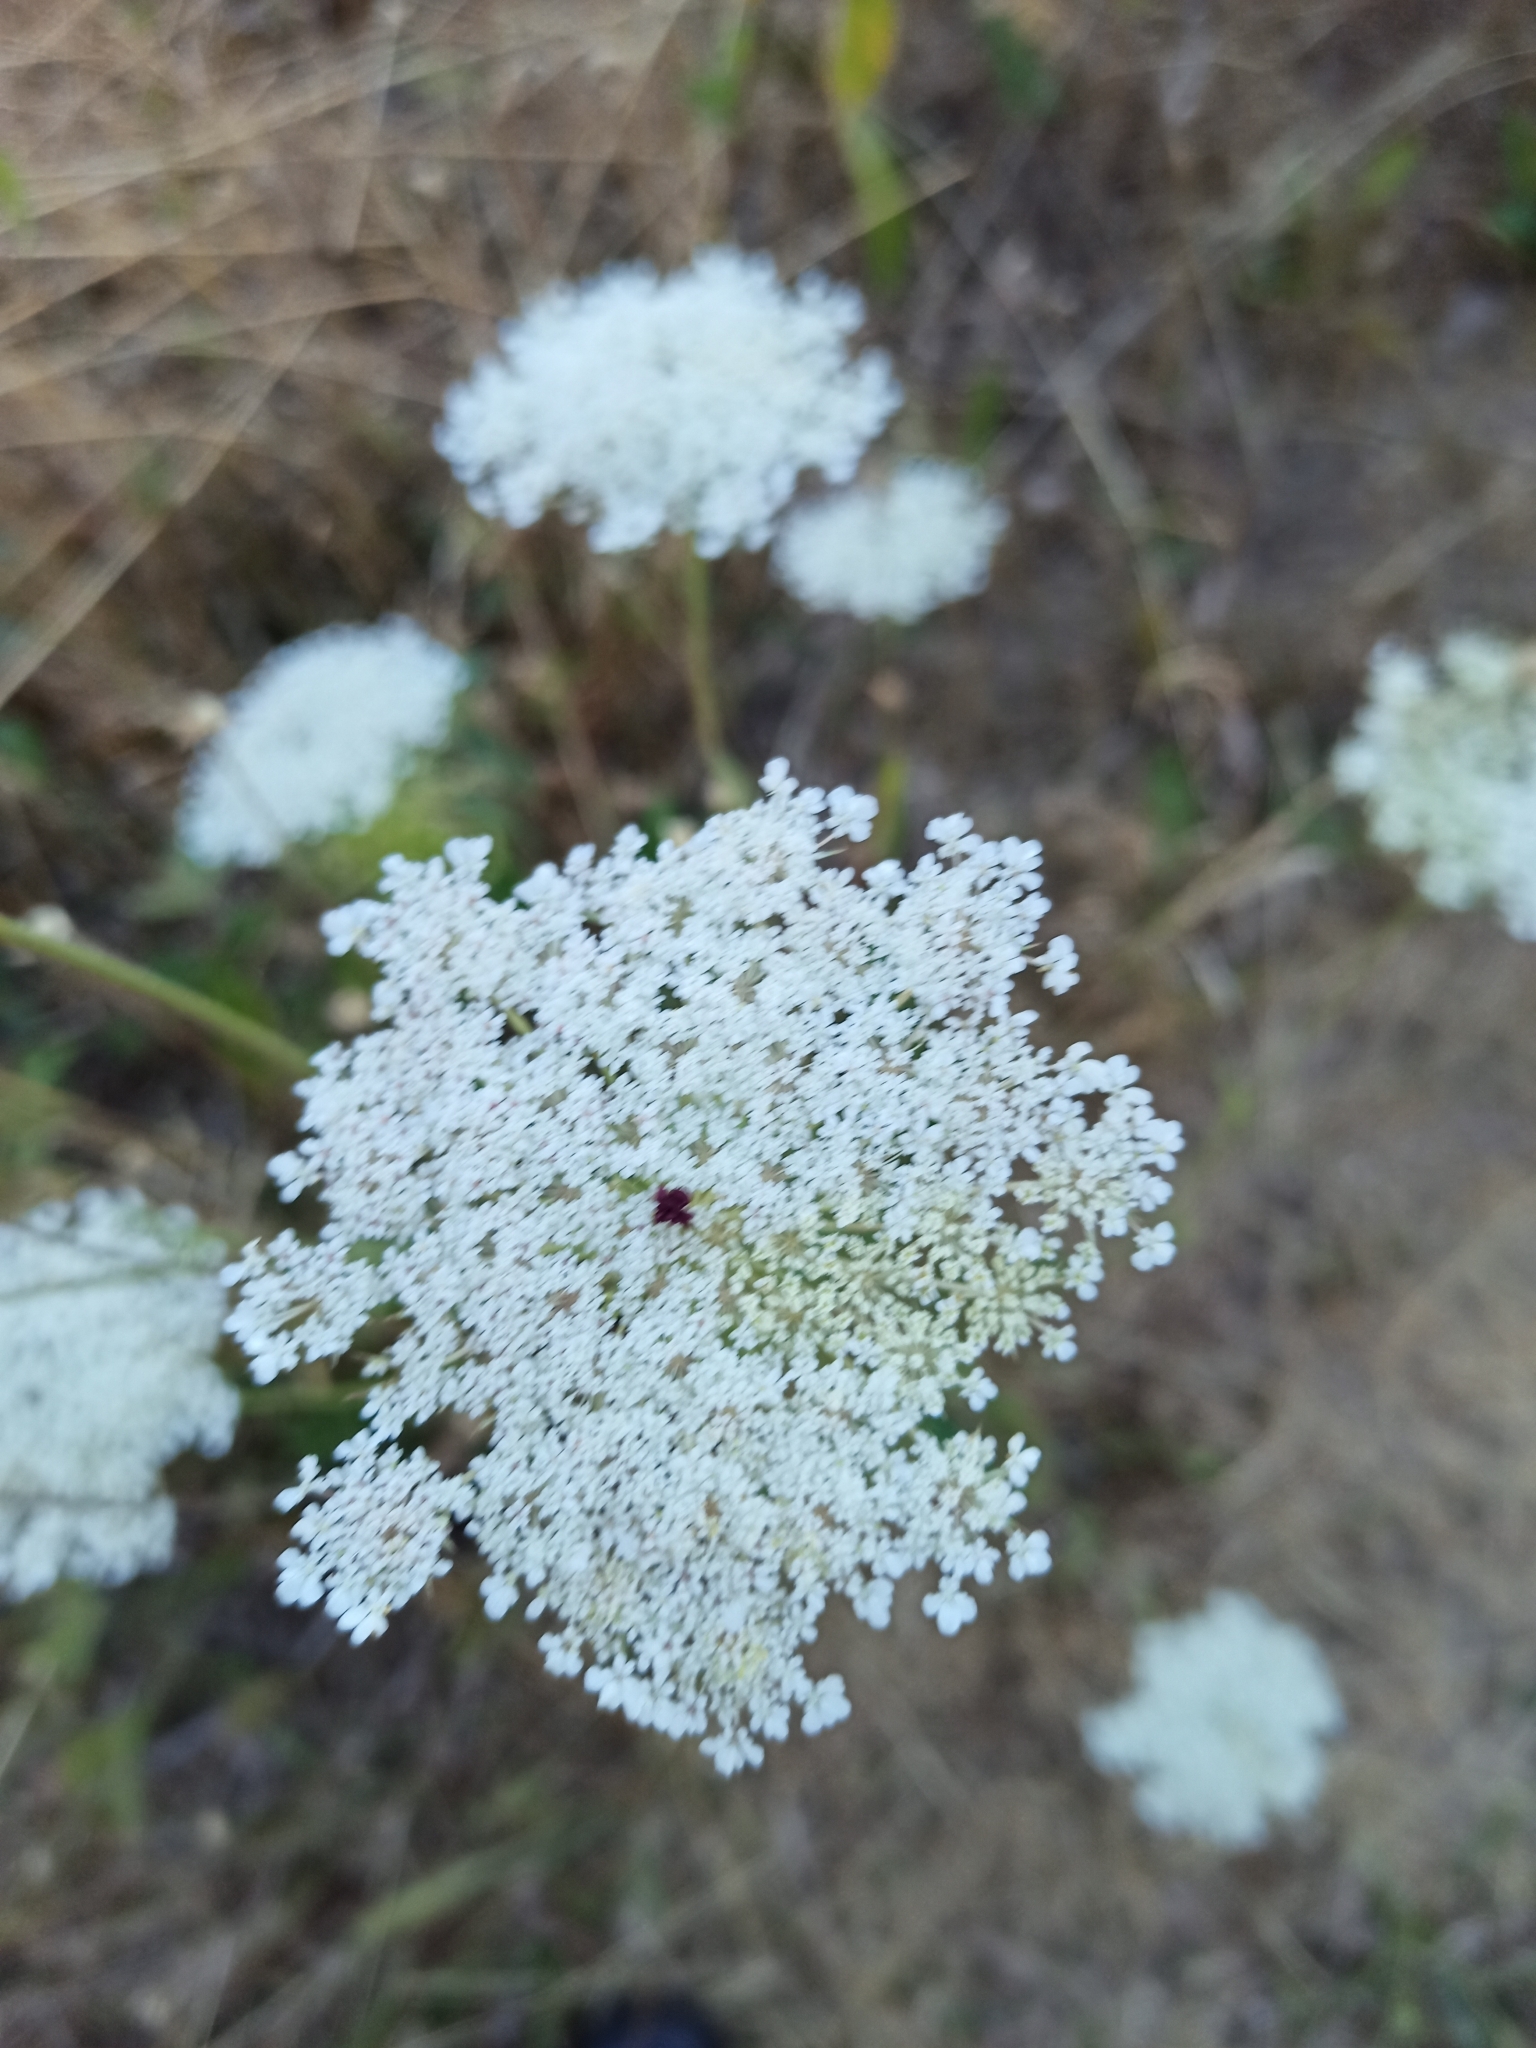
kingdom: Plantae
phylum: Tracheophyta
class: Magnoliopsida
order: Apiales
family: Apiaceae
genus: Daucus
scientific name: Daucus carota
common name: Wild carrot
